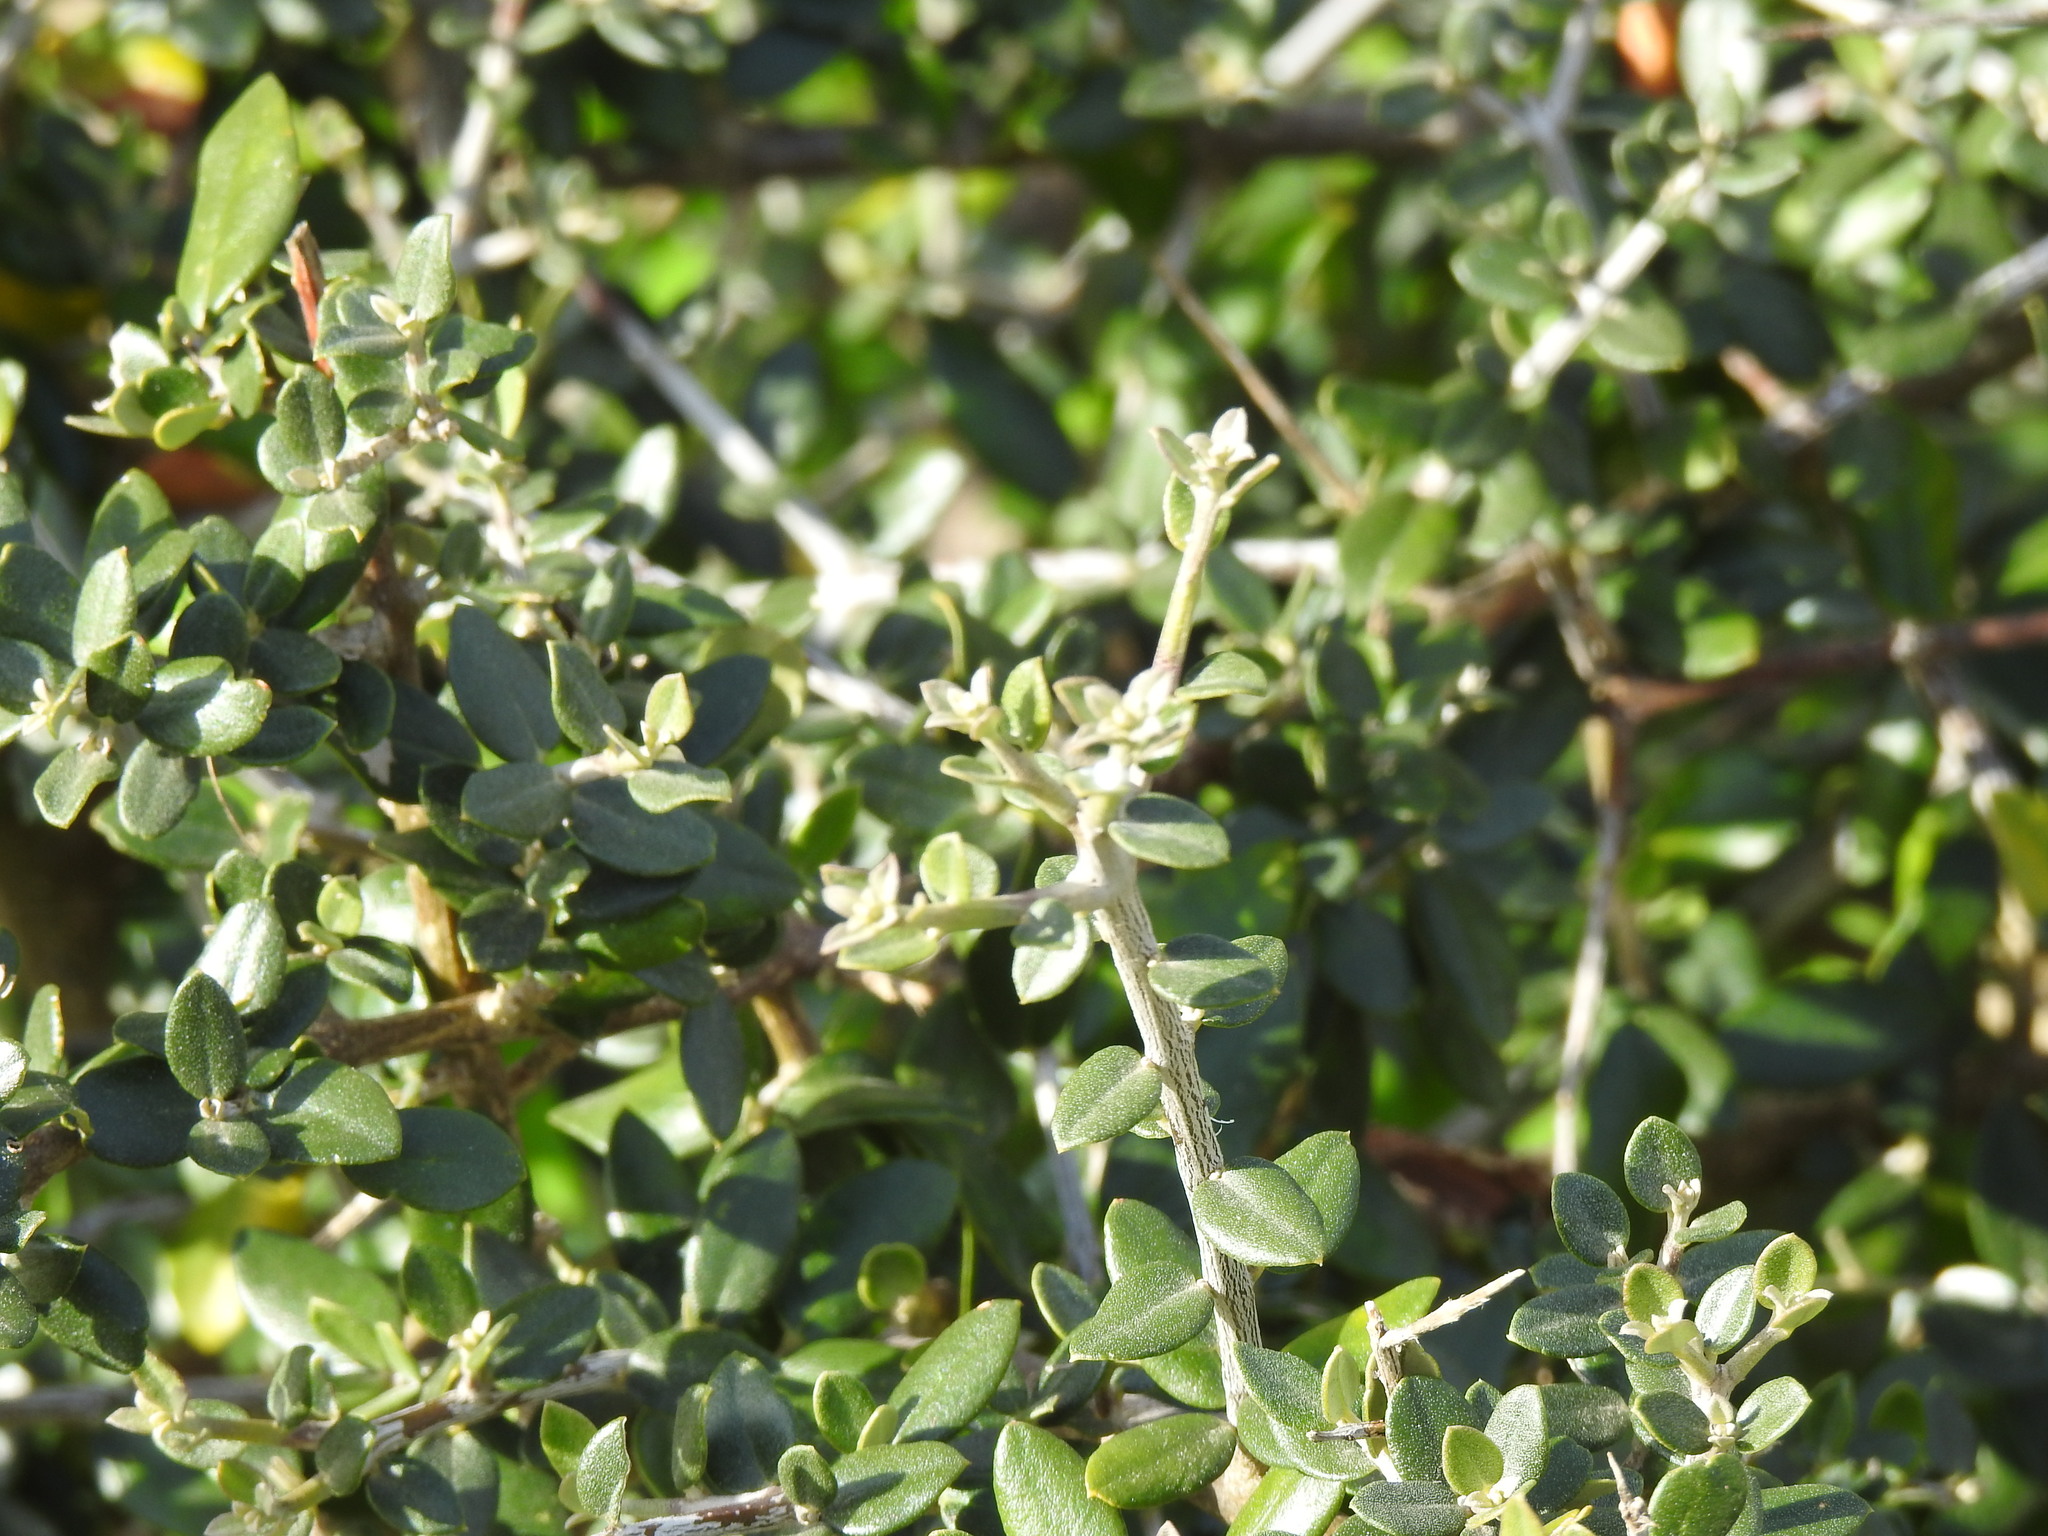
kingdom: Plantae
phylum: Tracheophyta
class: Magnoliopsida
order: Lamiales
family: Oleaceae
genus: Olea
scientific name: Olea europaea
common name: Olive
